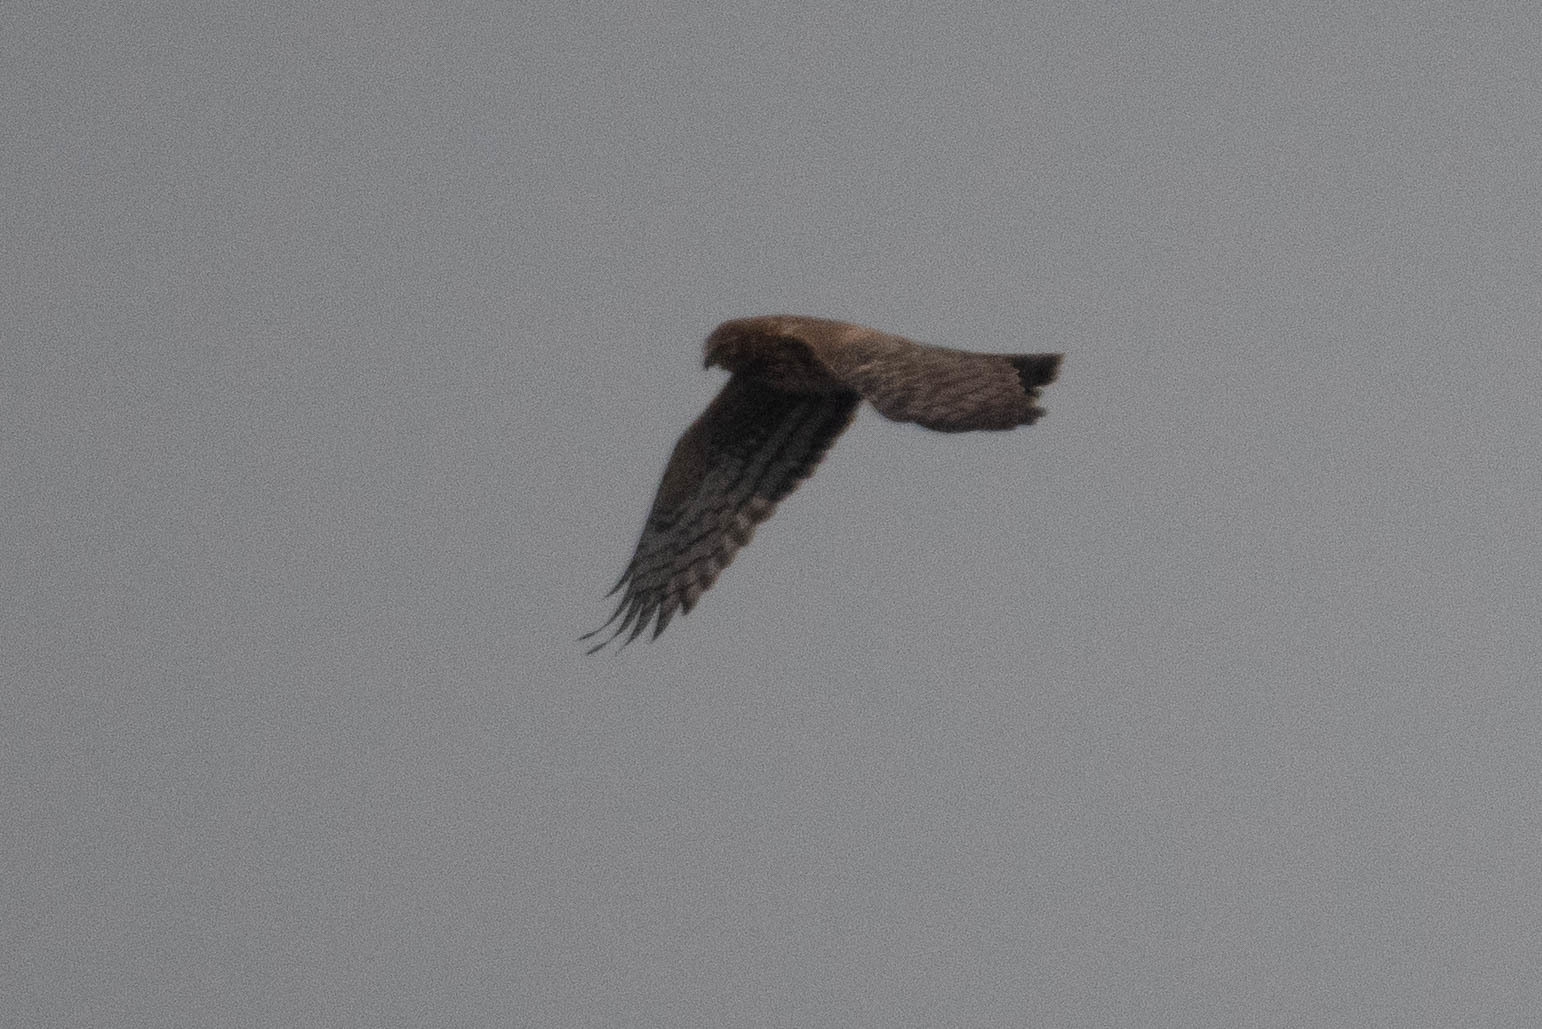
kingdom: Animalia
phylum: Chordata
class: Aves
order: Accipitriformes
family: Accipitridae
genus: Circus
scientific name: Circus cyaneus
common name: Hen harrier
